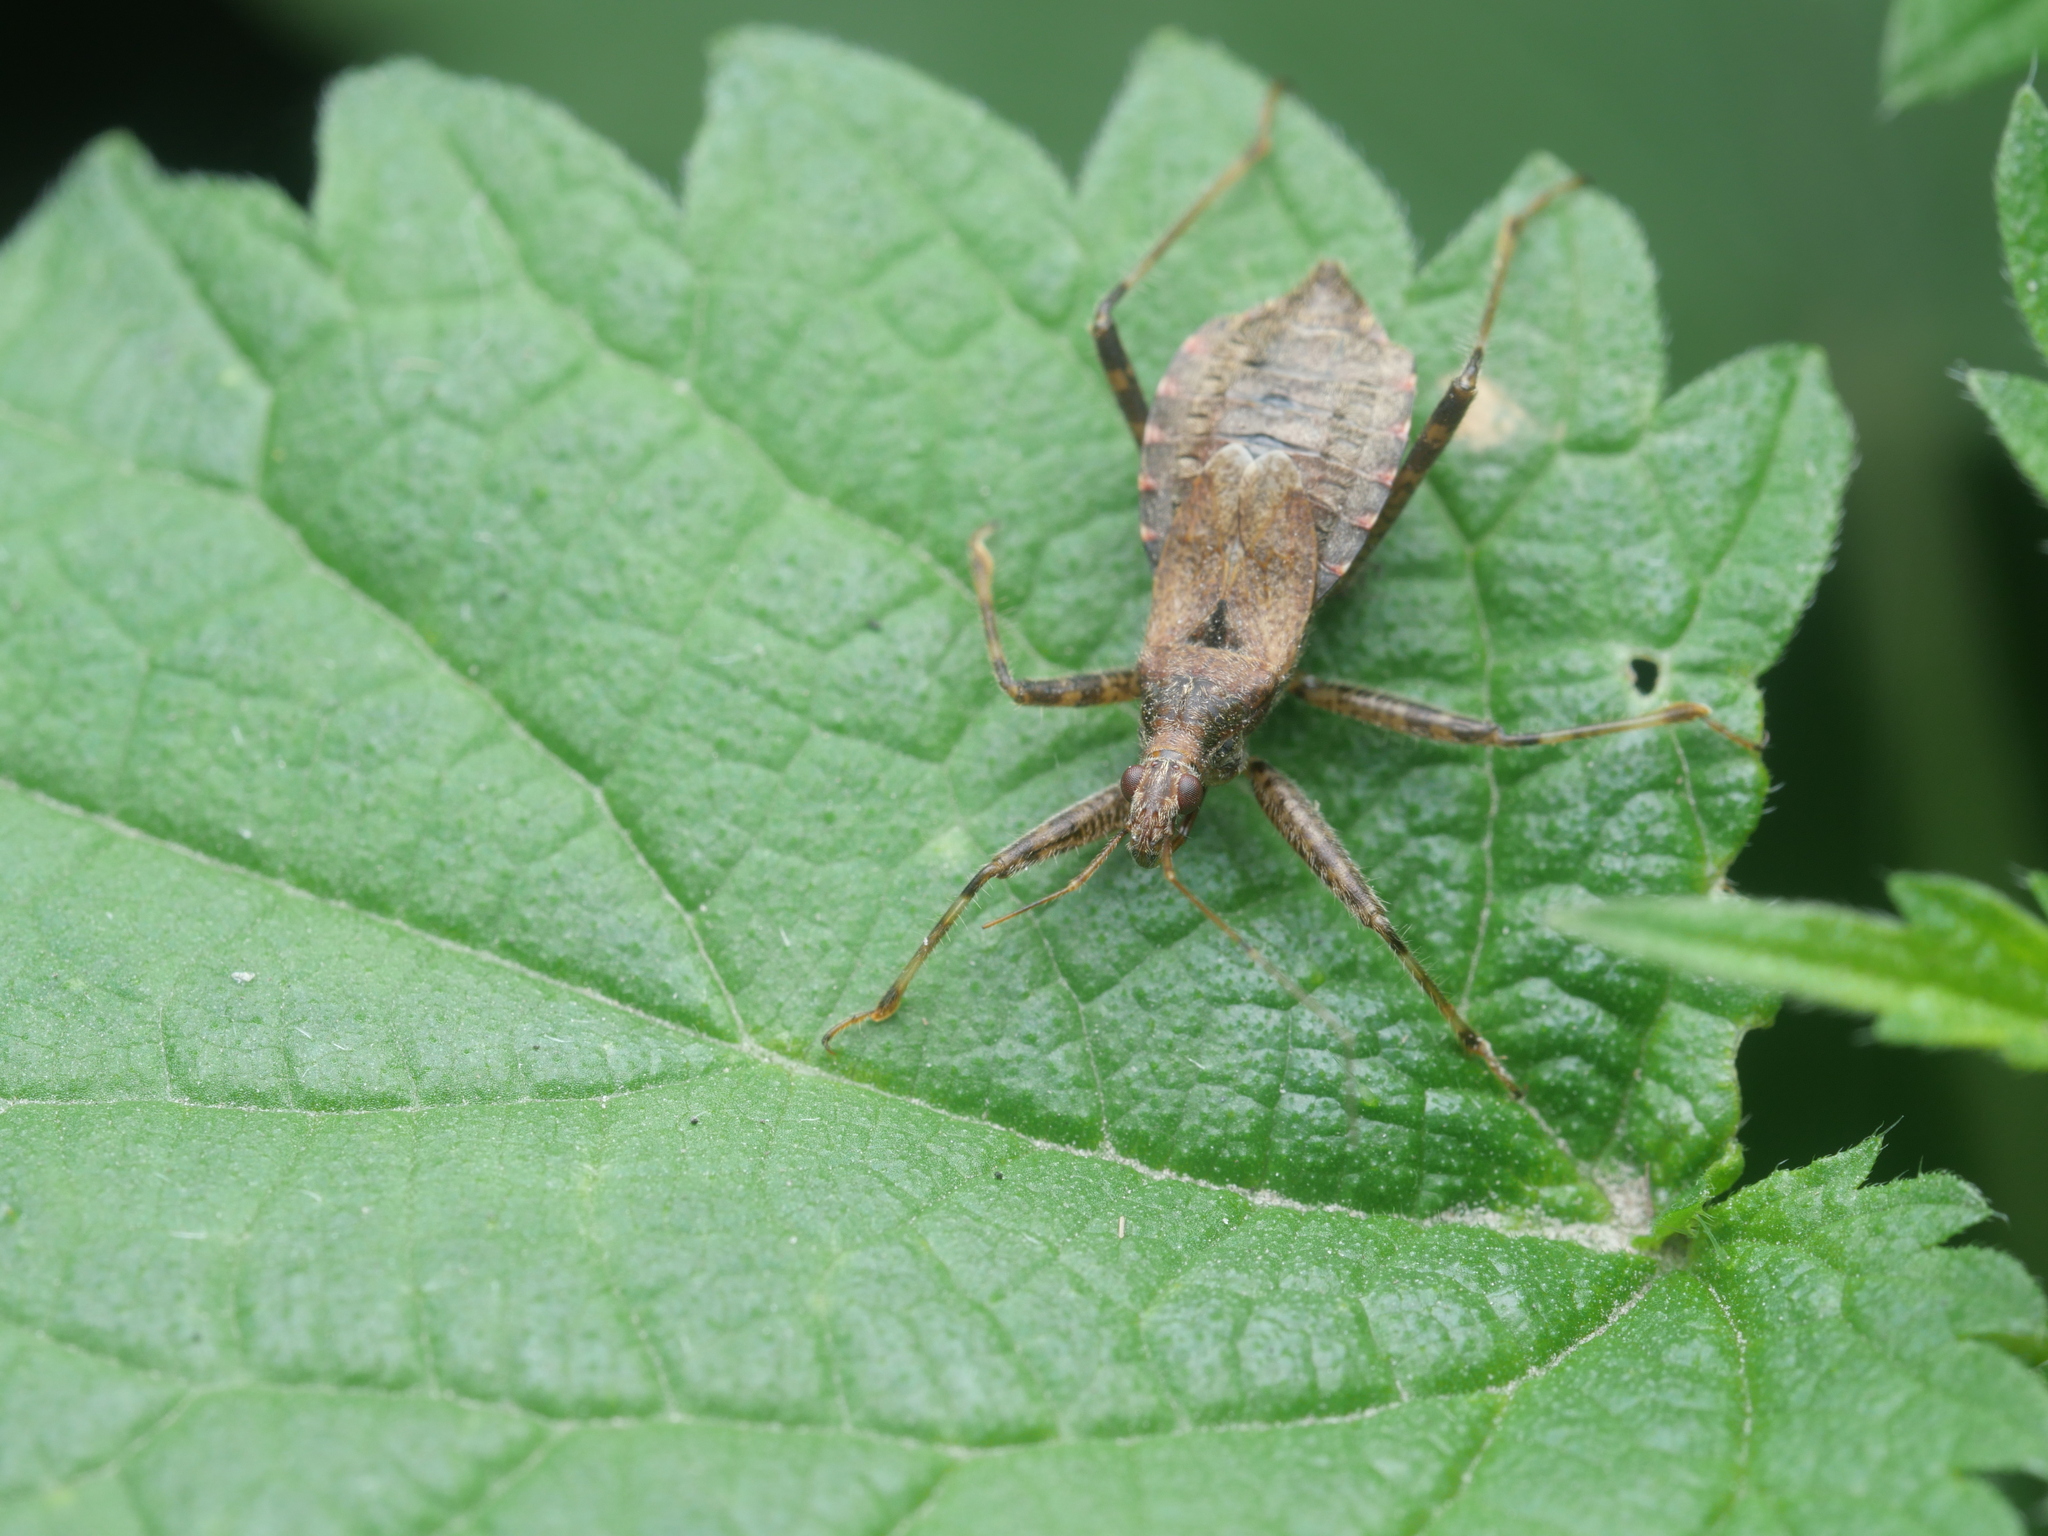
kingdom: Animalia
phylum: Arthropoda
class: Insecta
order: Hemiptera
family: Nabidae
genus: Himacerus
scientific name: Himacerus apterus
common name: Tree damsel bug
